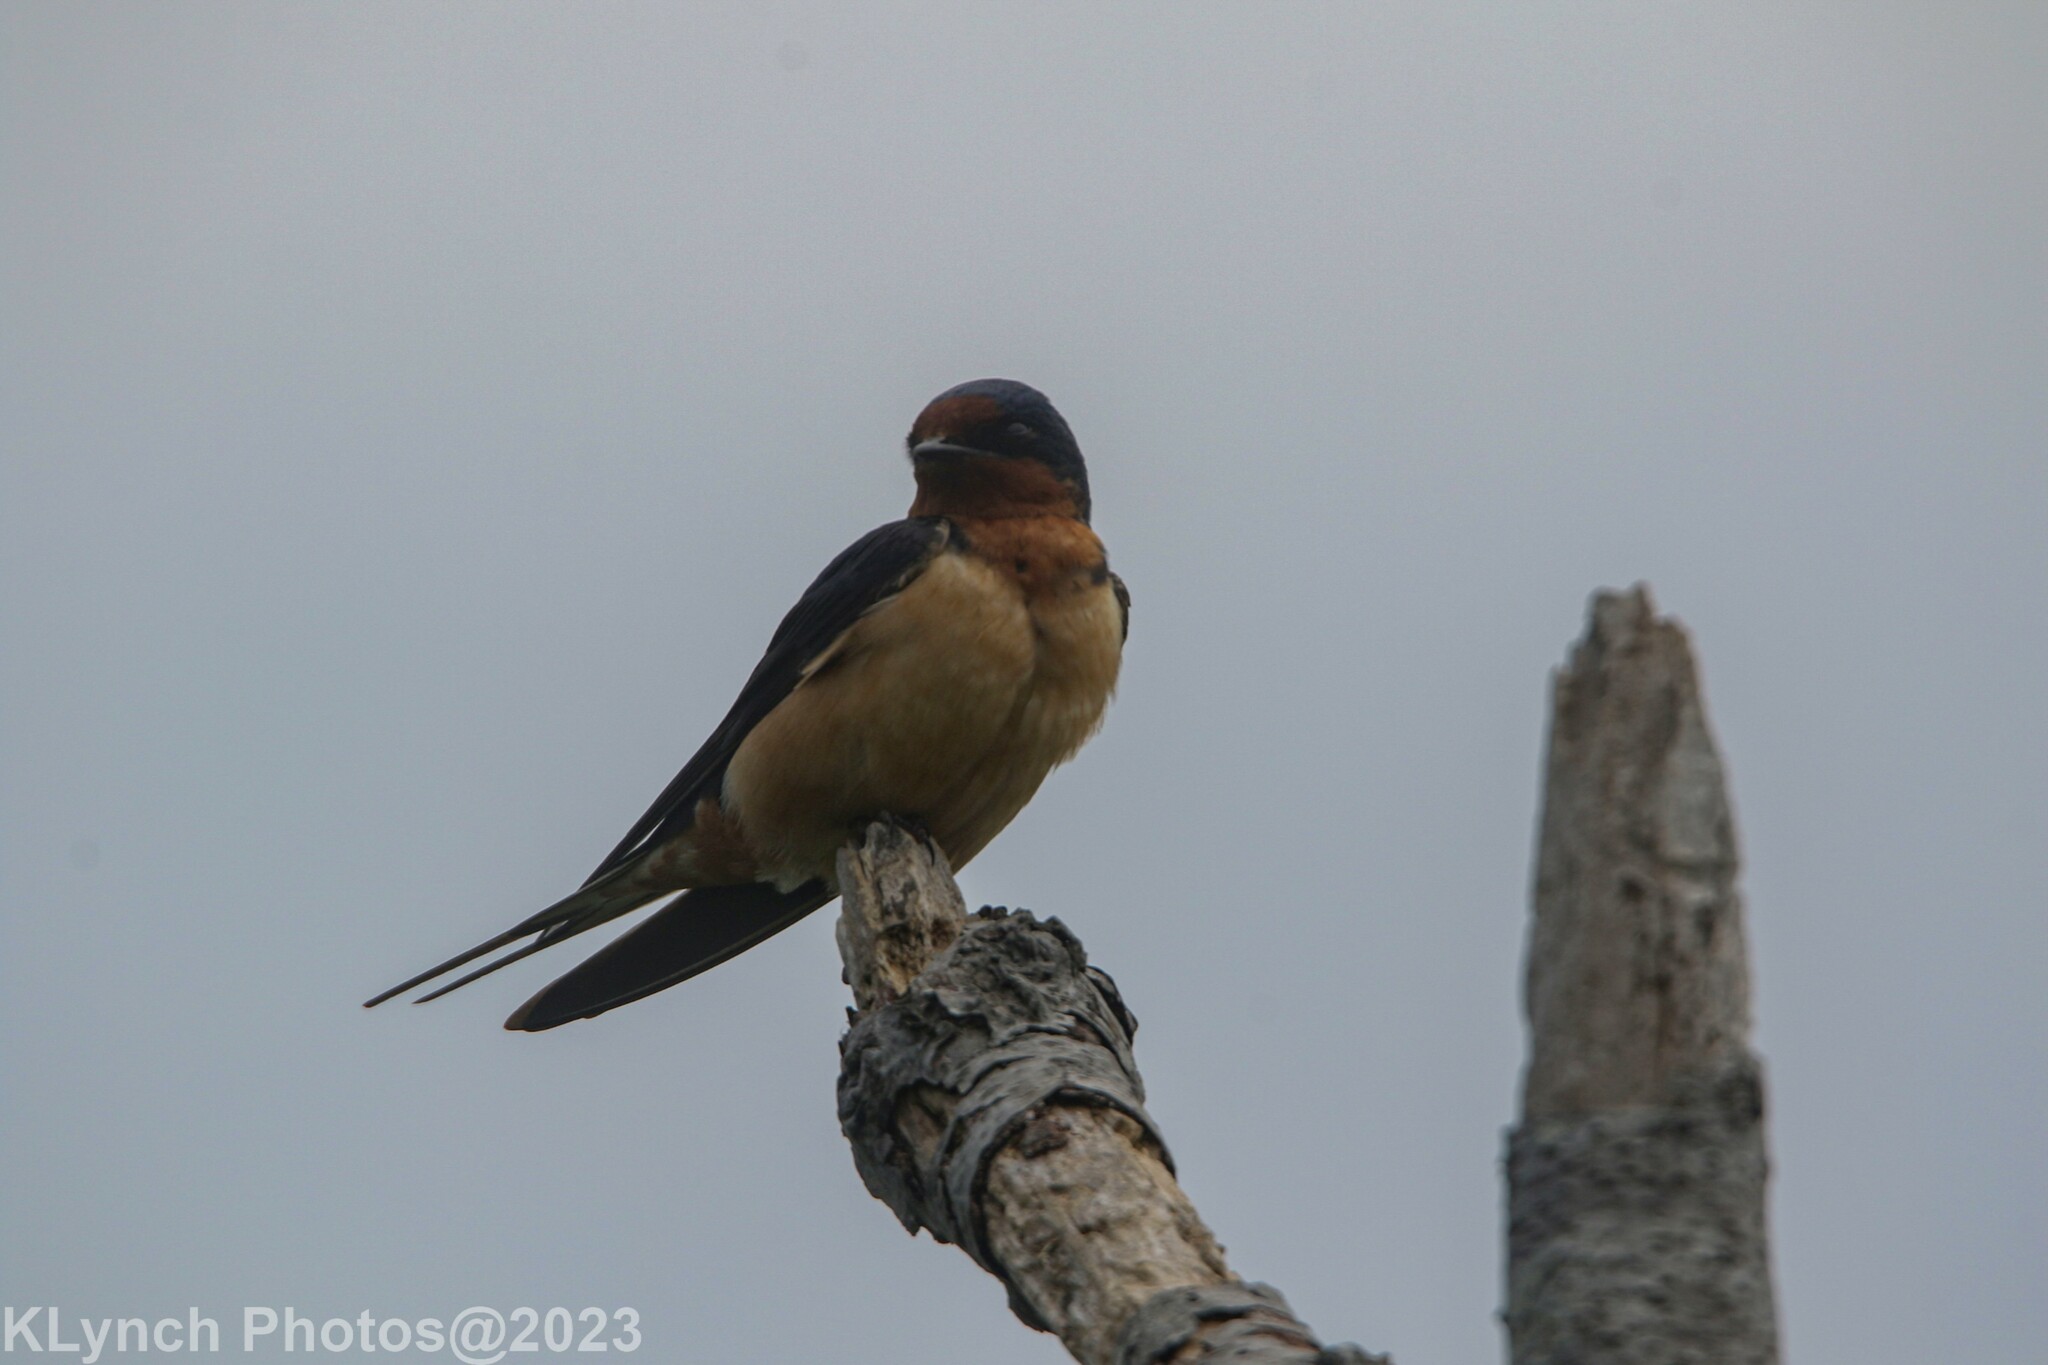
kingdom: Animalia
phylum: Chordata
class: Aves
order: Passeriformes
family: Hirundinidae
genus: Hirundo
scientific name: Hirundo rustica
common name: Barn swallow
